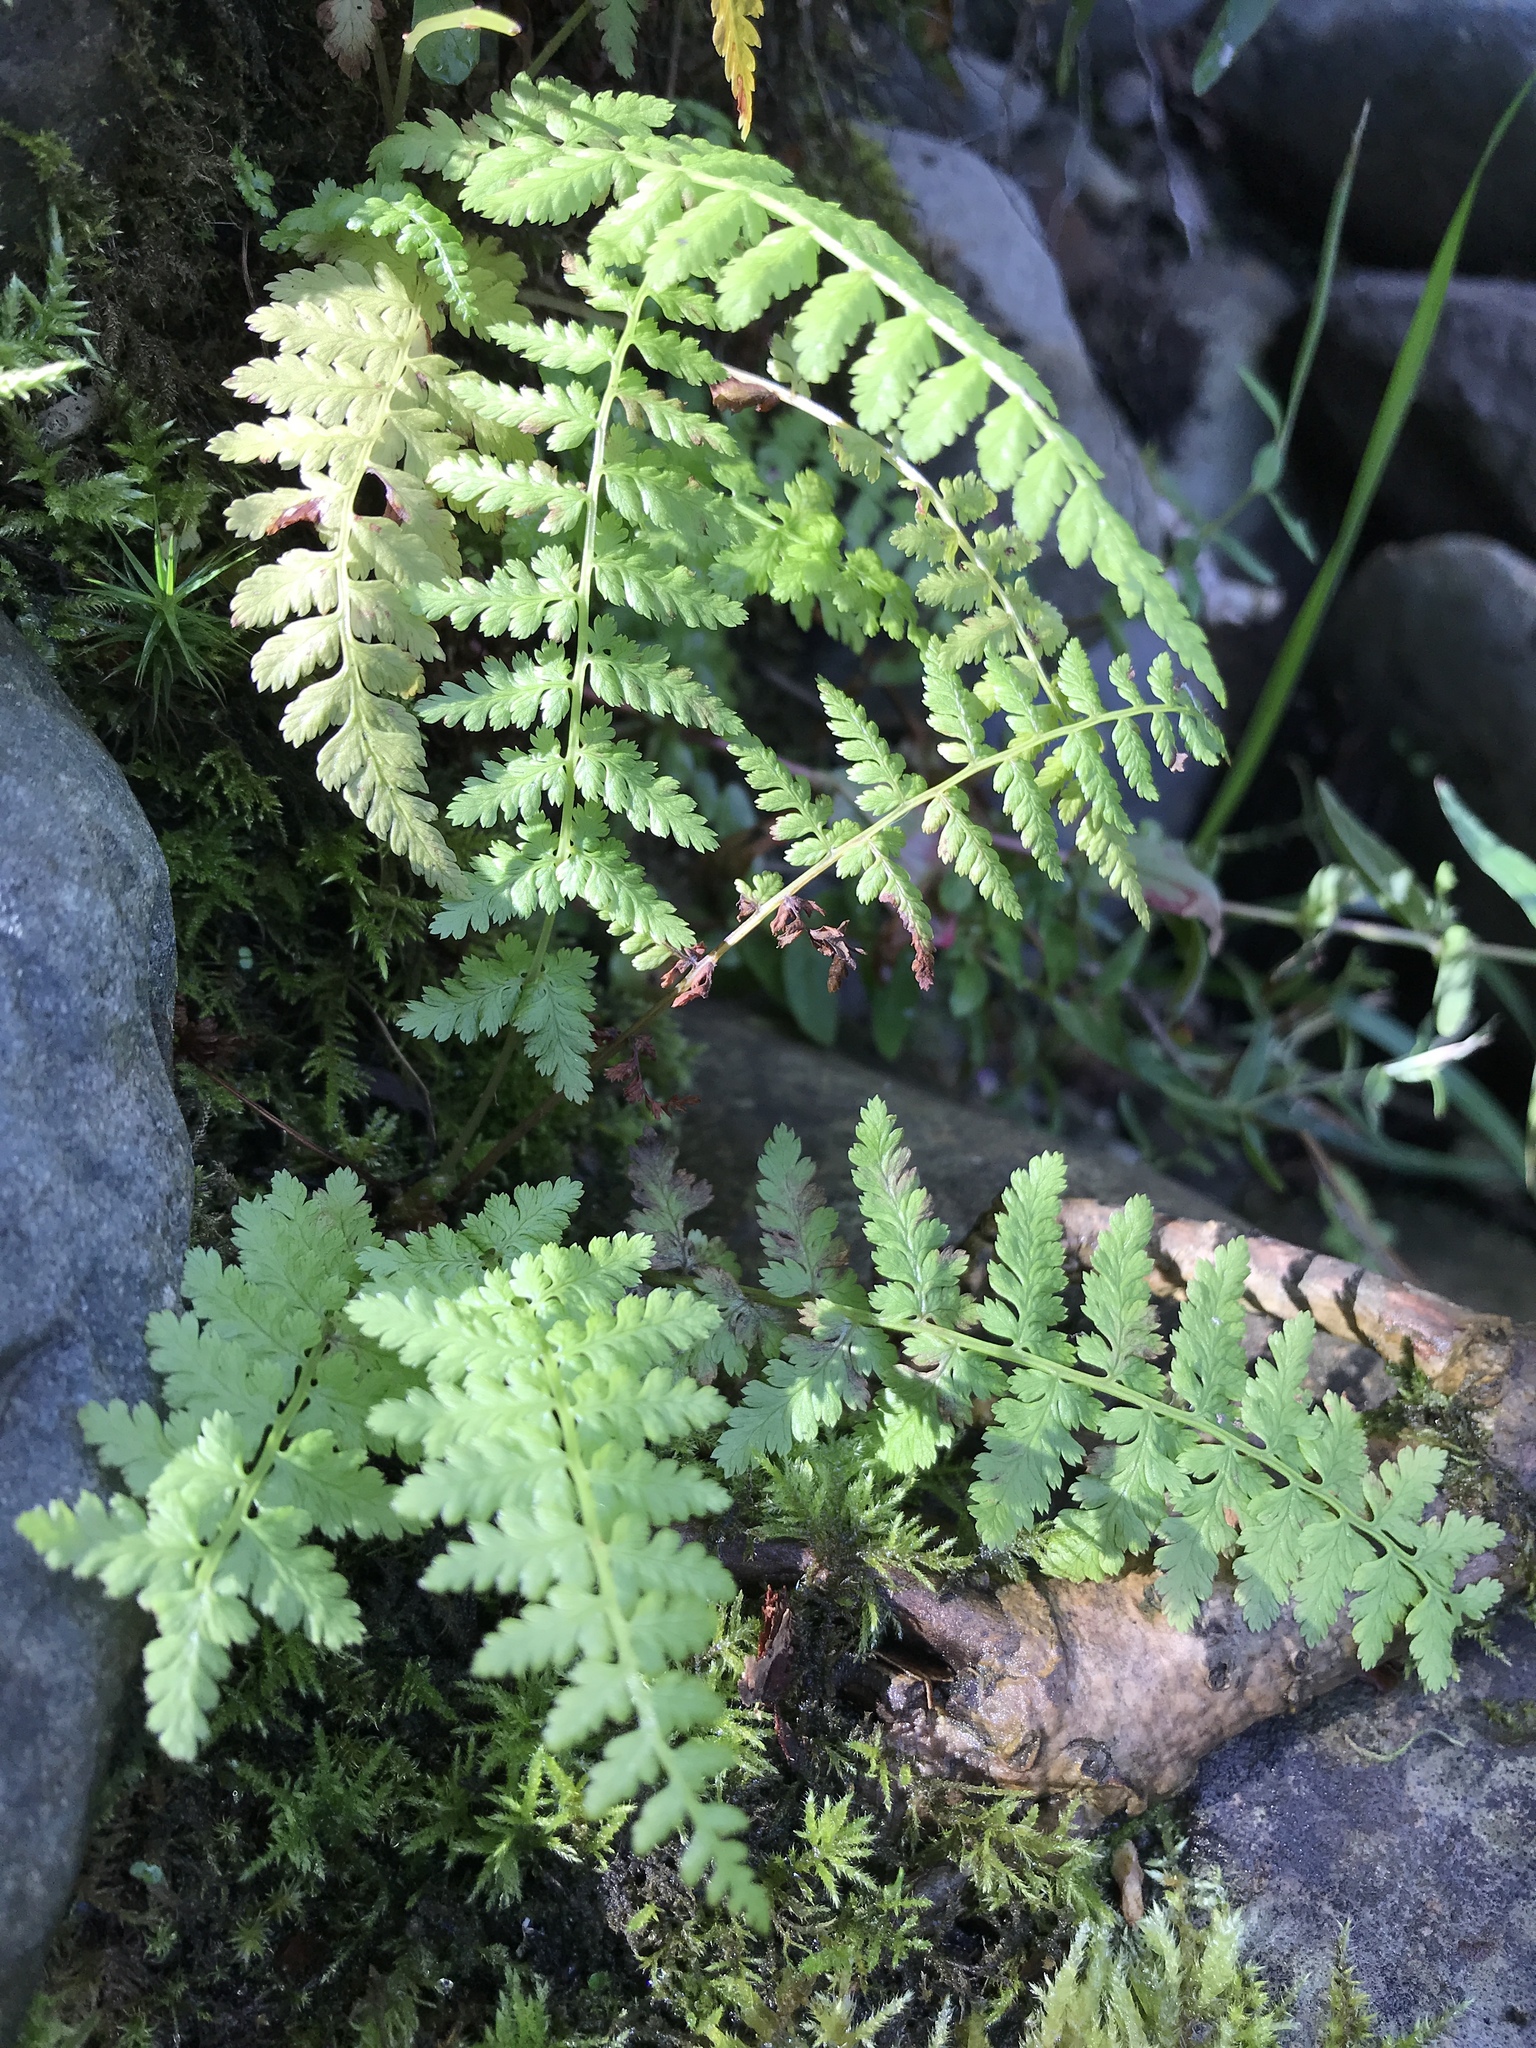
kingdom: Plantae
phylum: Tracheophyta
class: Polypodiopsida
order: Polypodiales
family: Athyriaceae
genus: Athyrium
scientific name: Athyrium filix-femina
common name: Lady fern
